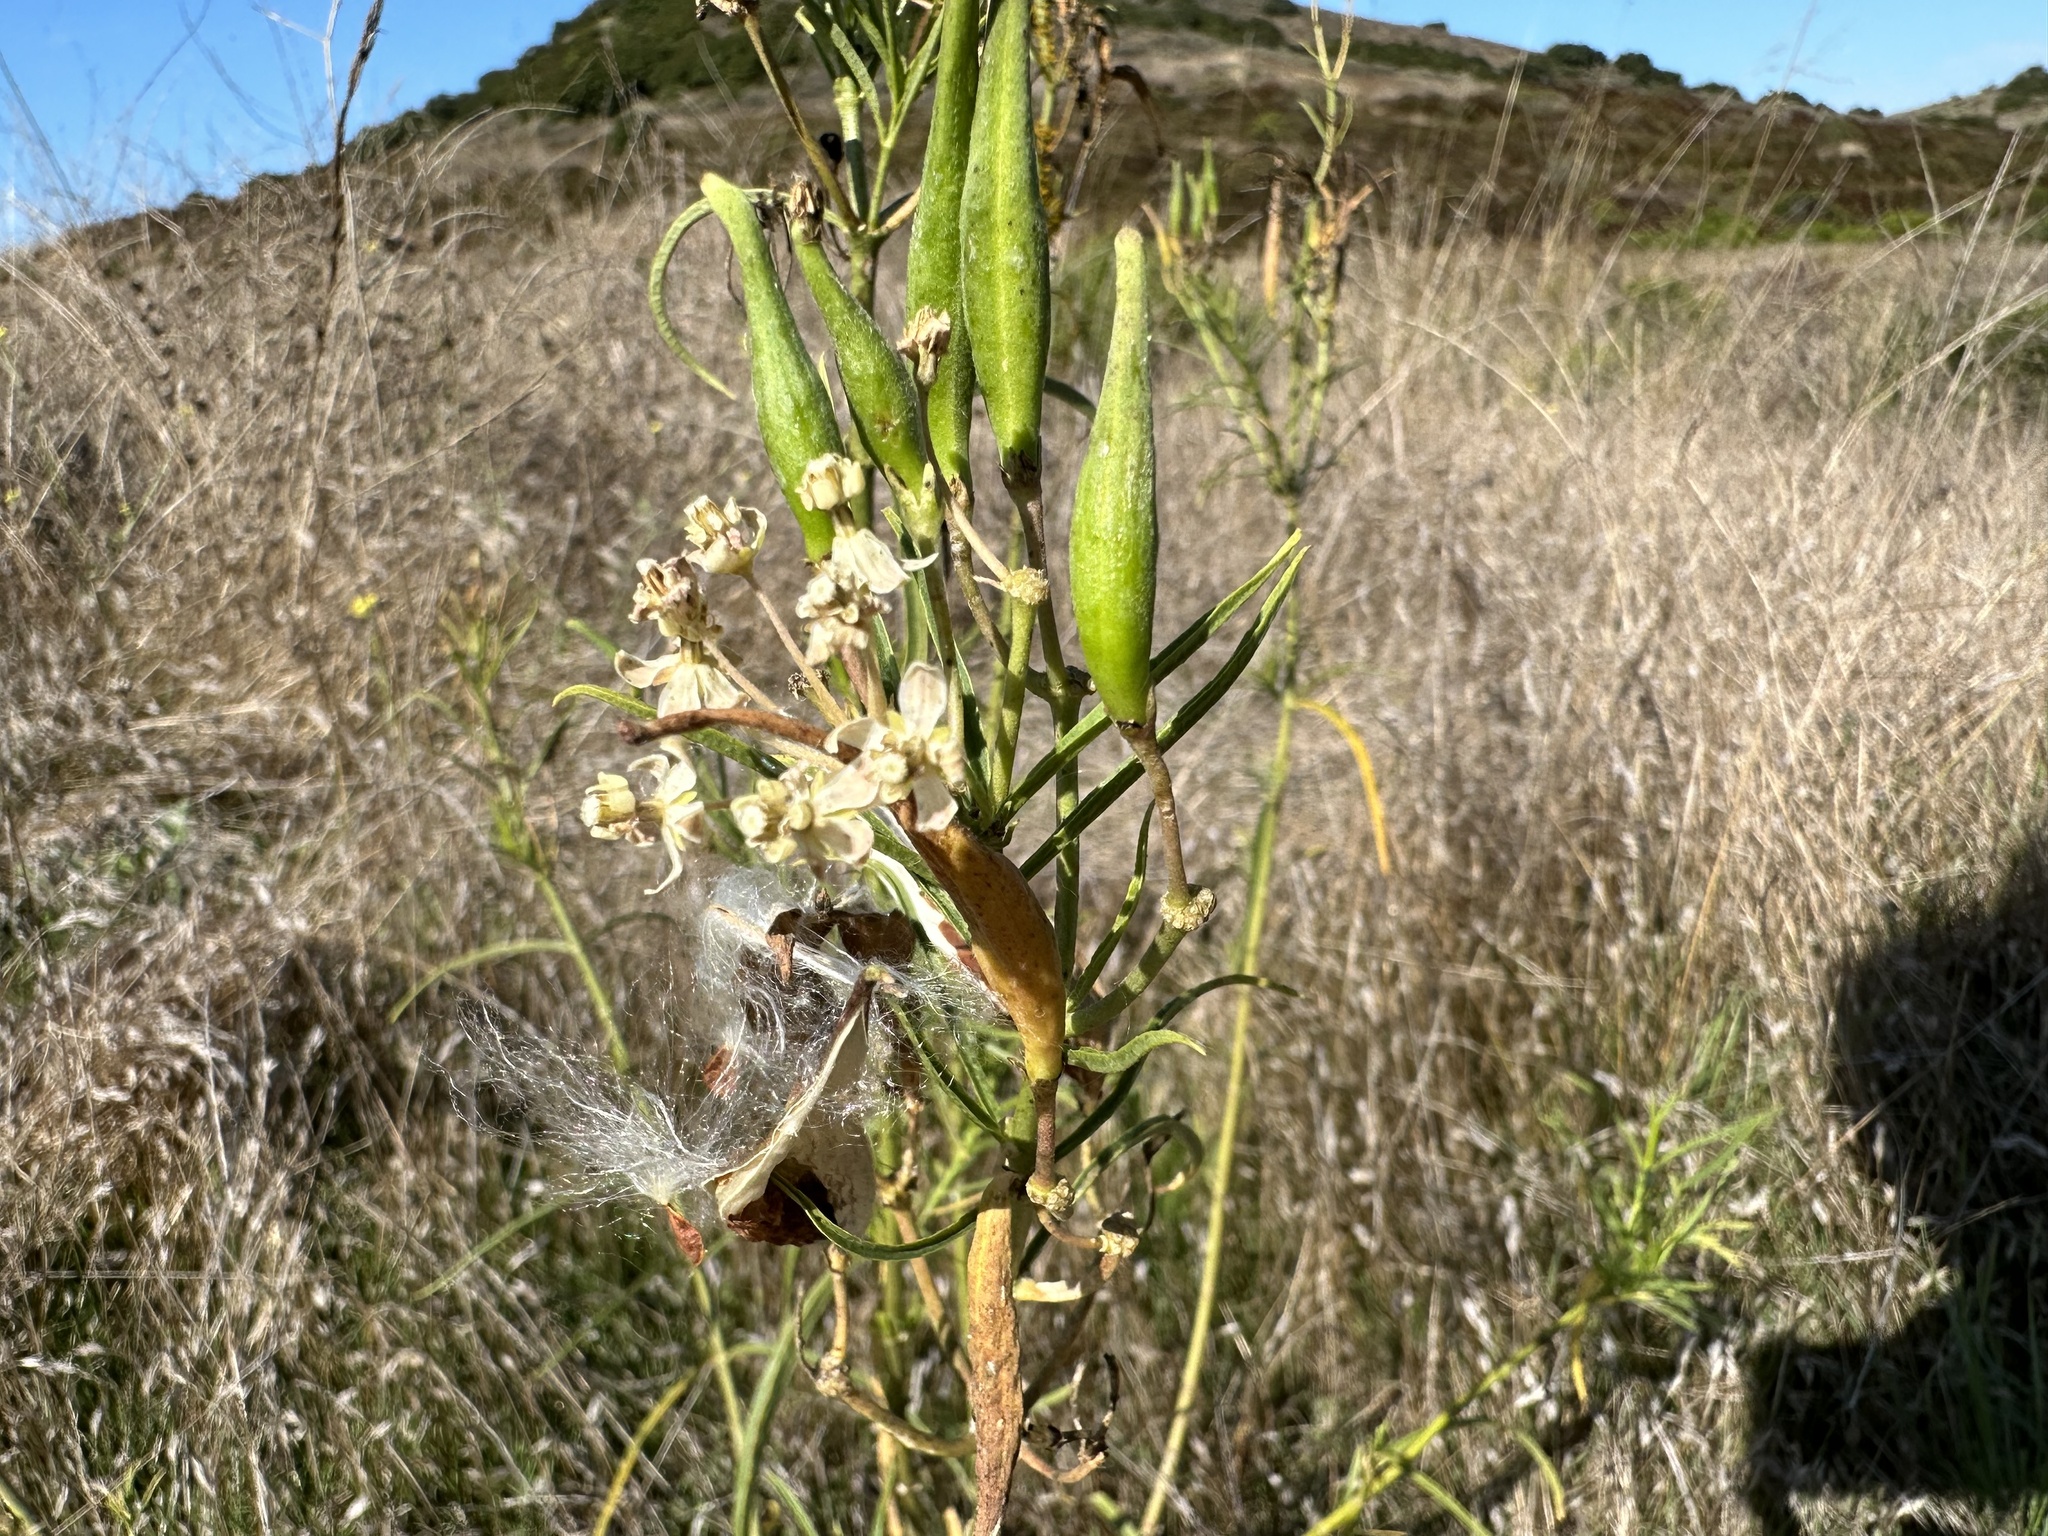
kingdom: Plantae
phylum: Tracheophyta
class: Magnoliopsida
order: Gentianales
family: Apocynaceae
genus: Asclepias
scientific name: Asclepias fascicularis
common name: Mexican milkweed
